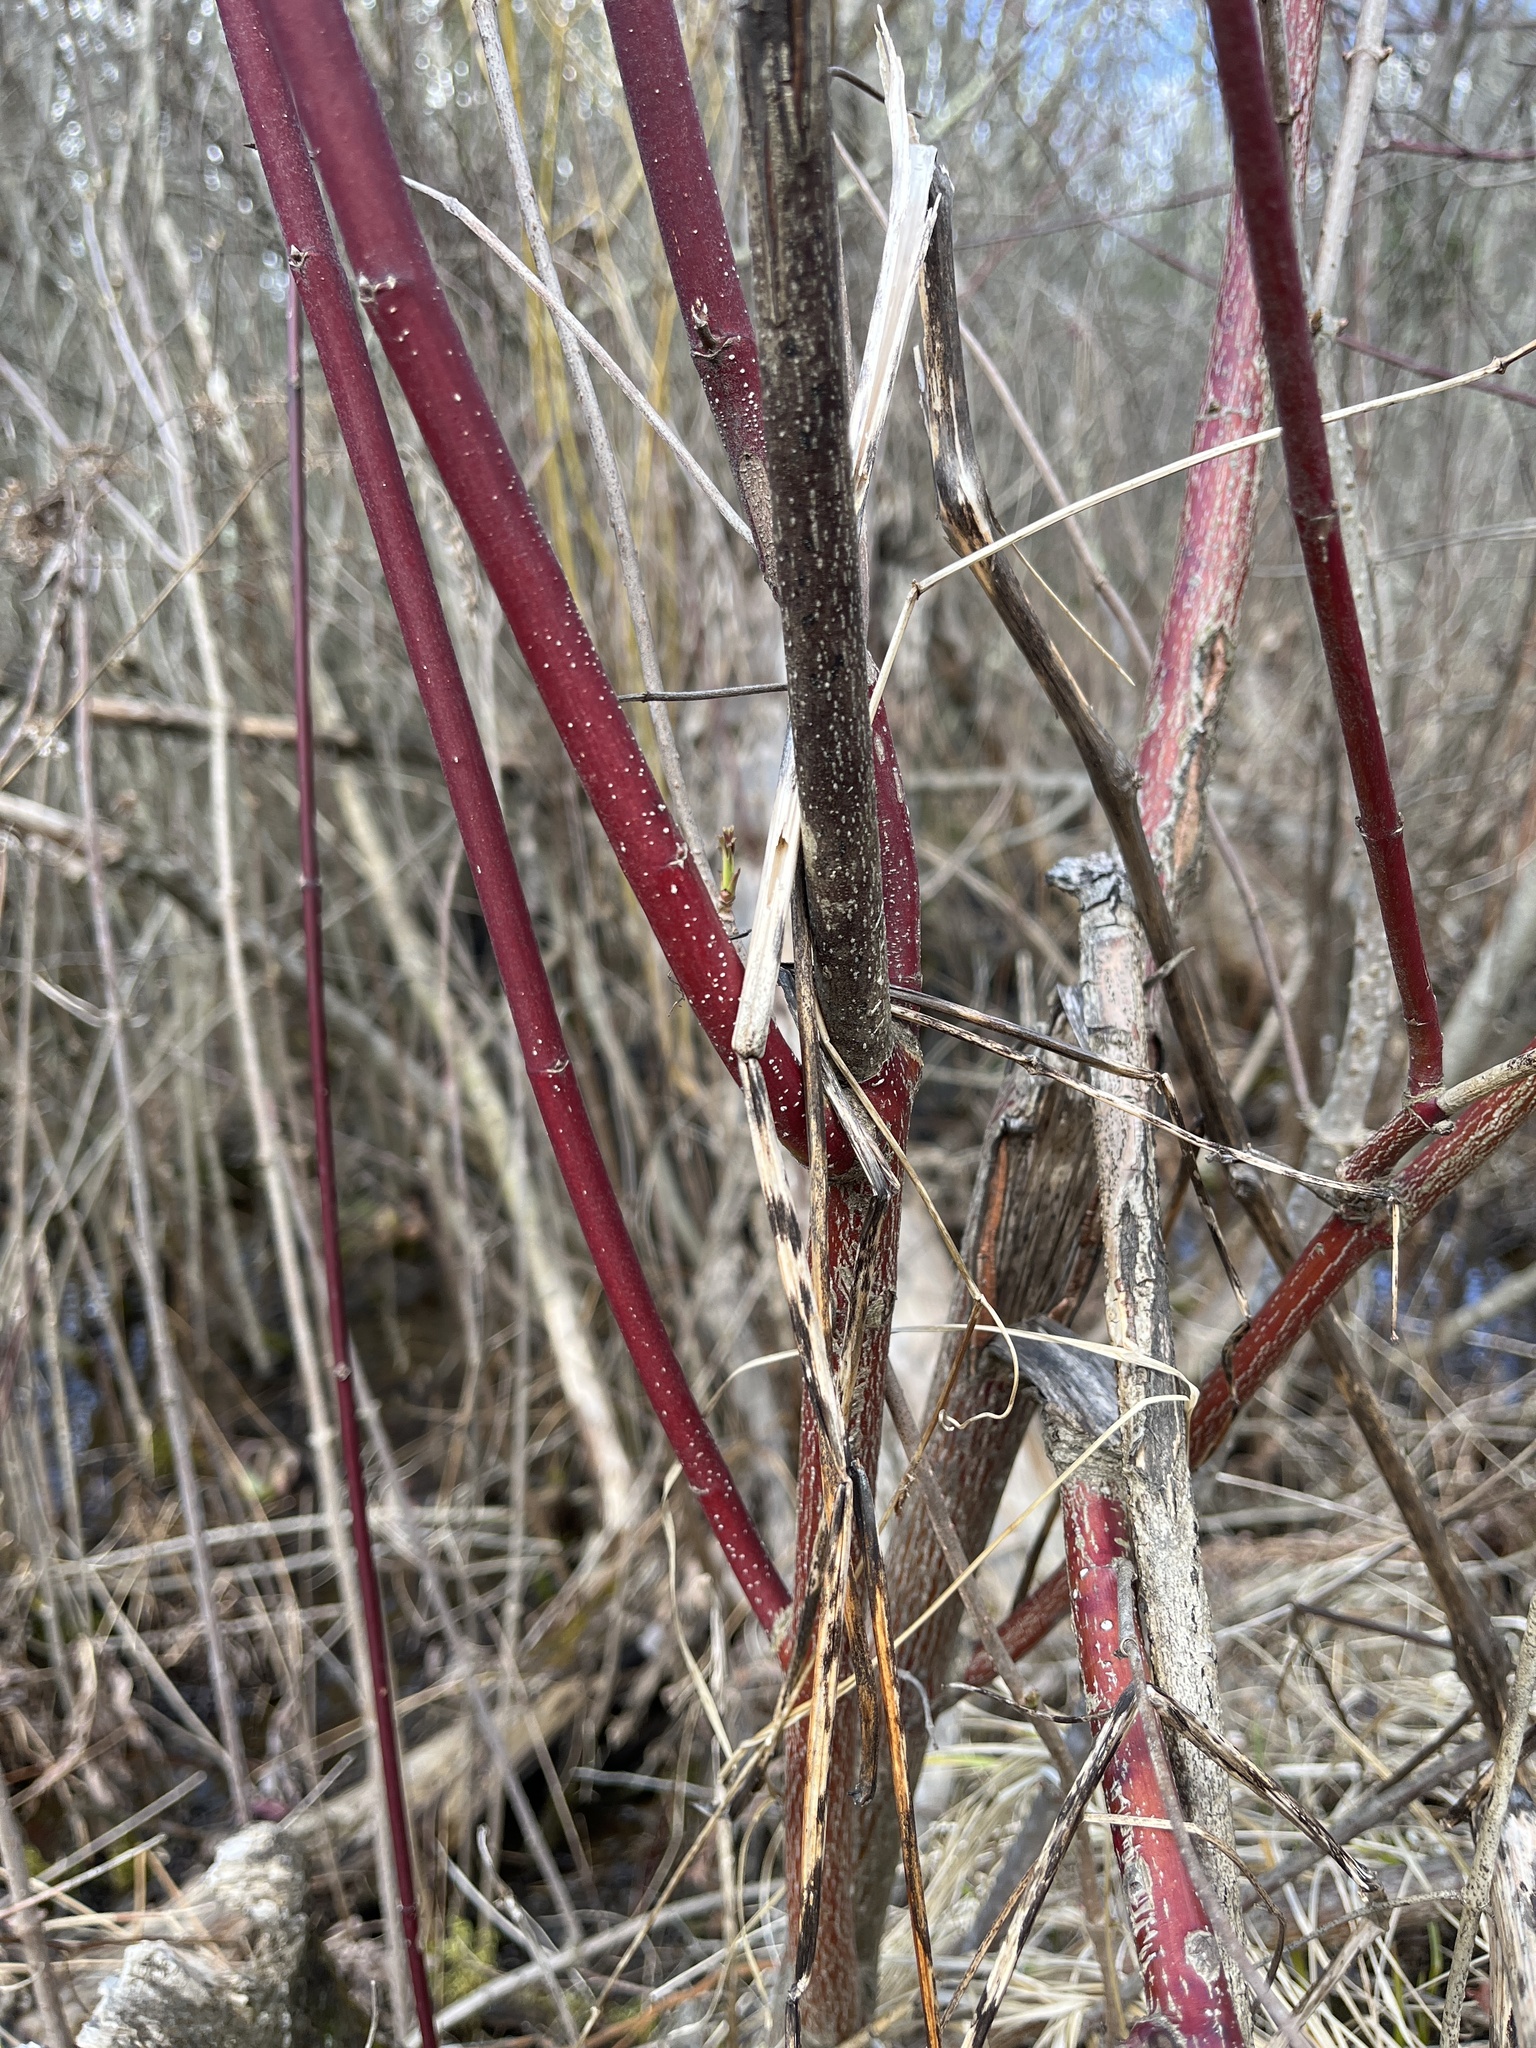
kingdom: Plantae
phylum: Tracheophyta
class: Magnoliopsida
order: Cornales
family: Cornaceae
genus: Cornus
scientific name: Cornus amomum
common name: Silky dogwood
